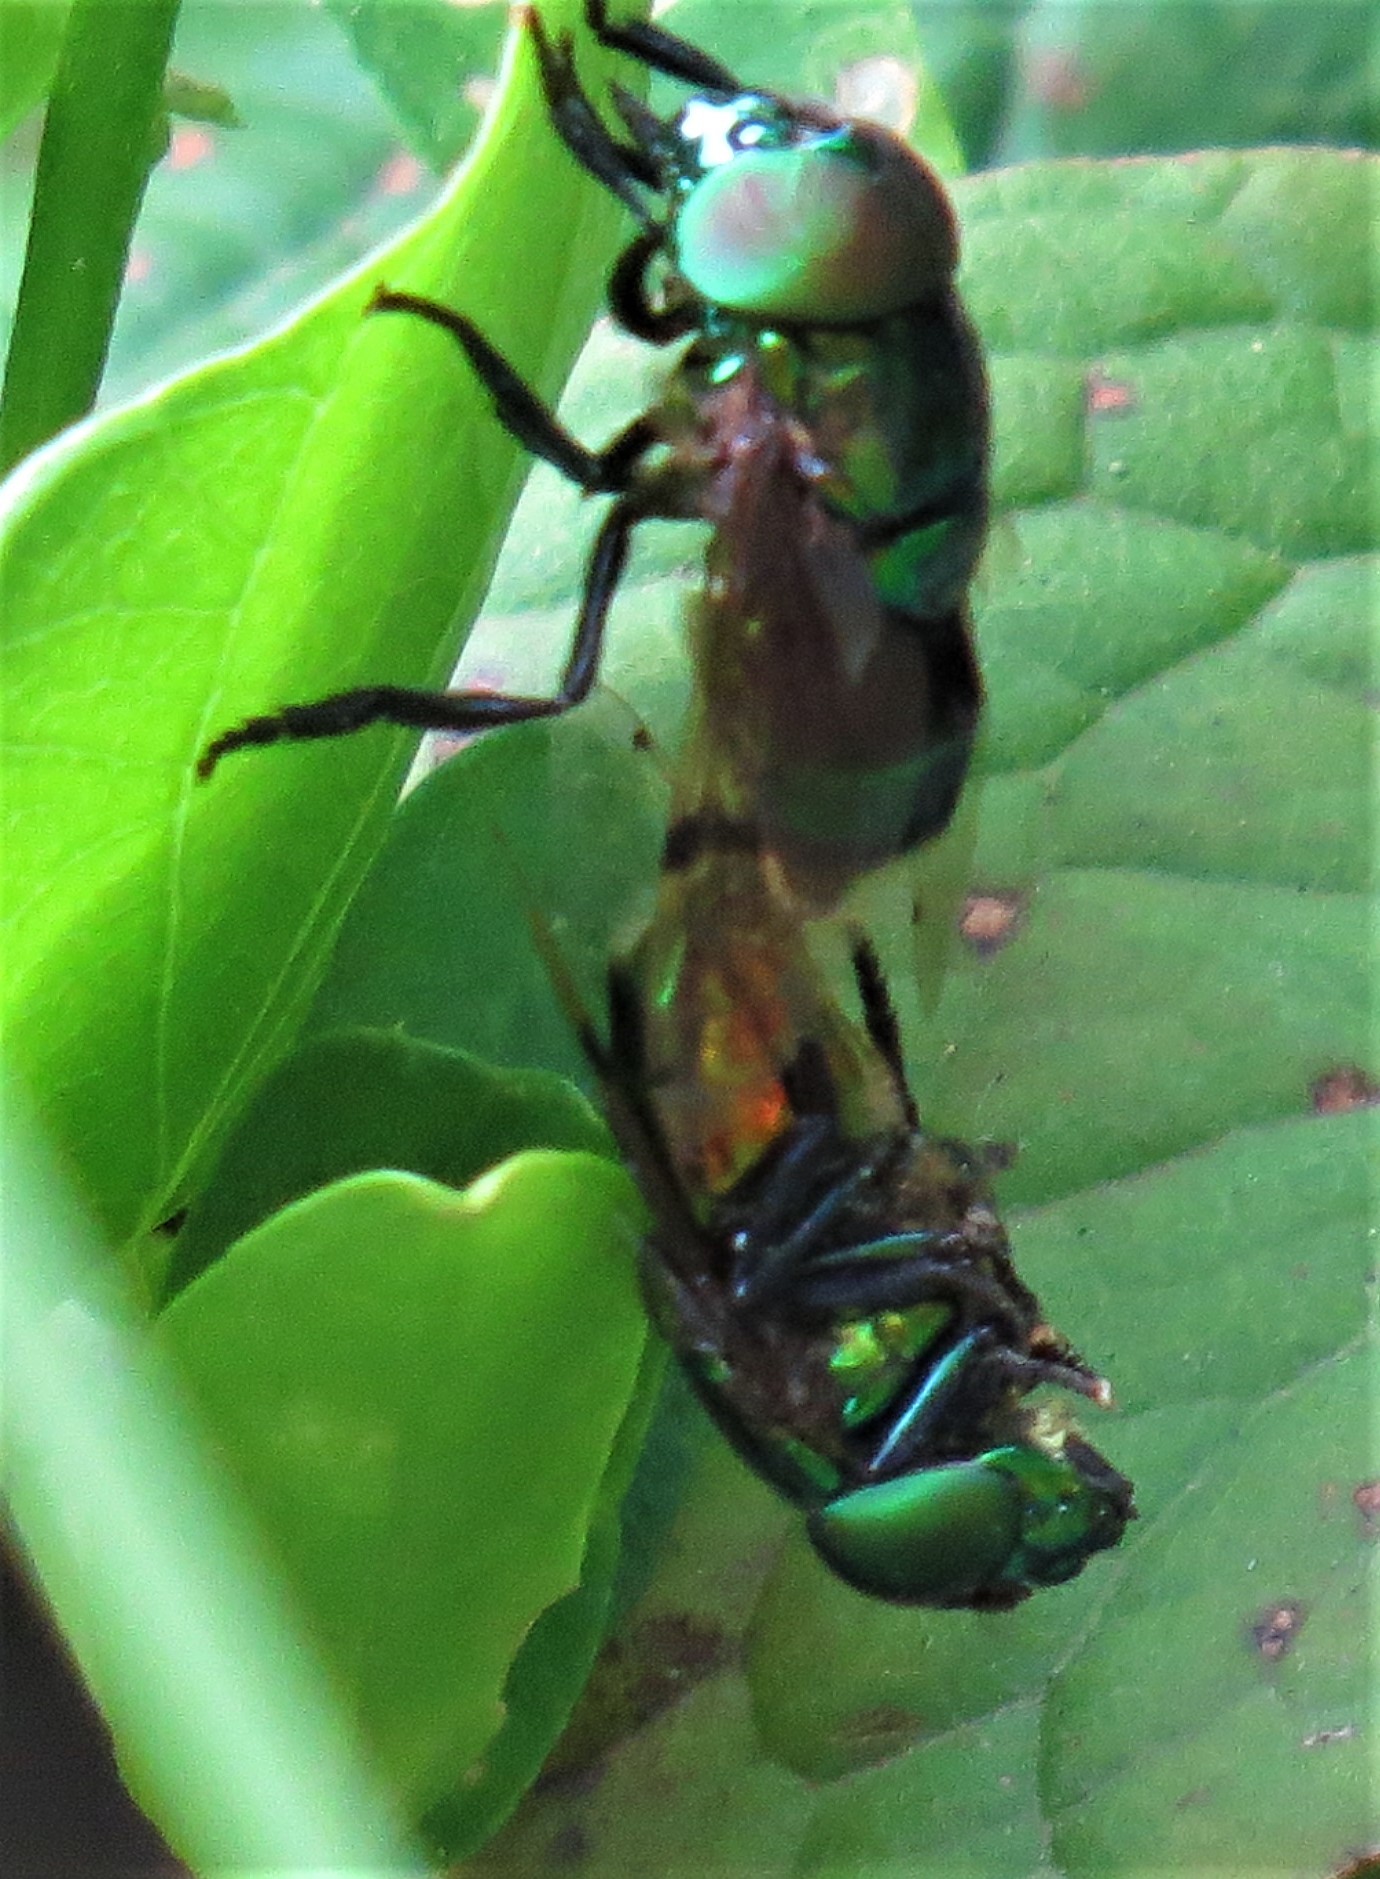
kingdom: Animalia
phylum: Arthropoda
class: Insecta
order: Diptera
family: Syrphidae
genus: Ornidia
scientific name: Ornidia obesa
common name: Syrphid fly
